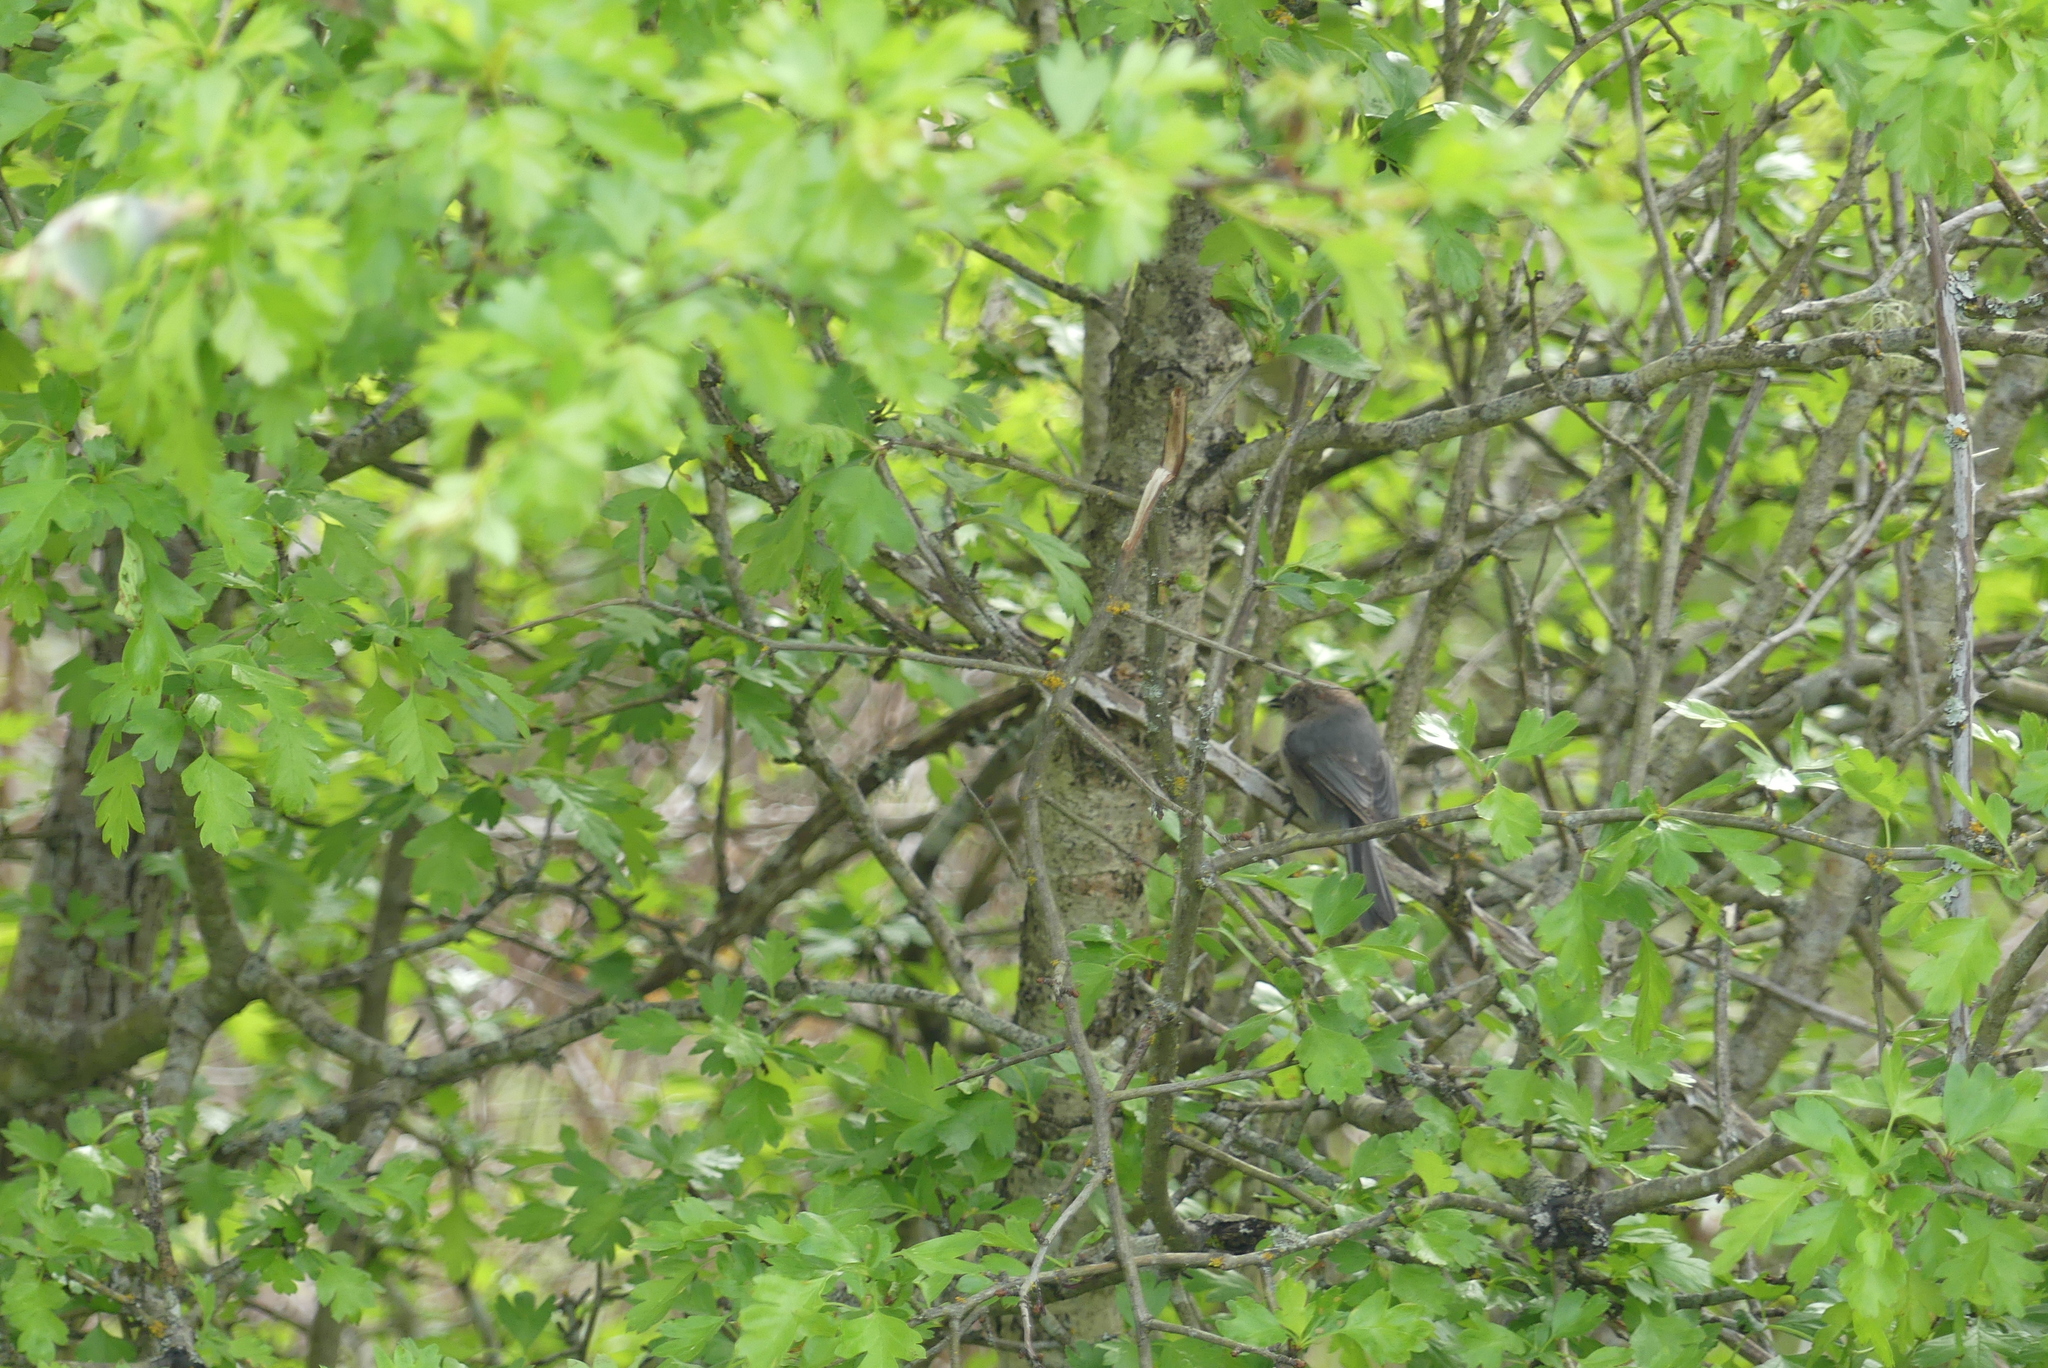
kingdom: Animalia
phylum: Chordata
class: Aves
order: Passeriformes
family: Aegithalidae
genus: Psaltriparus
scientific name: Psaltriparus minimus
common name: American bushtit
